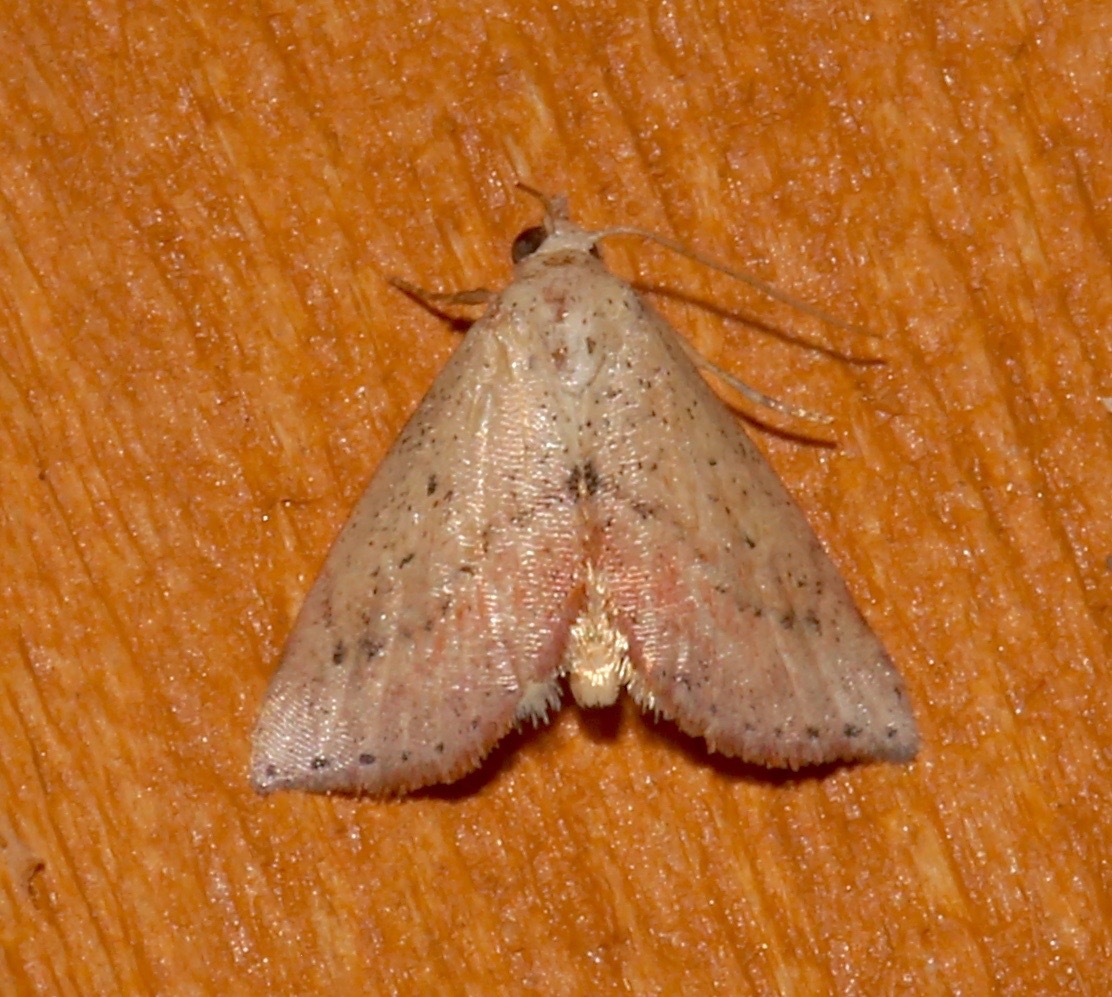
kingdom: Animalia
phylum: Arthropoda
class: Insecta
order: Lepidoptera
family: Noctuidae
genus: Proroblemma
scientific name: Proroblemma testa
